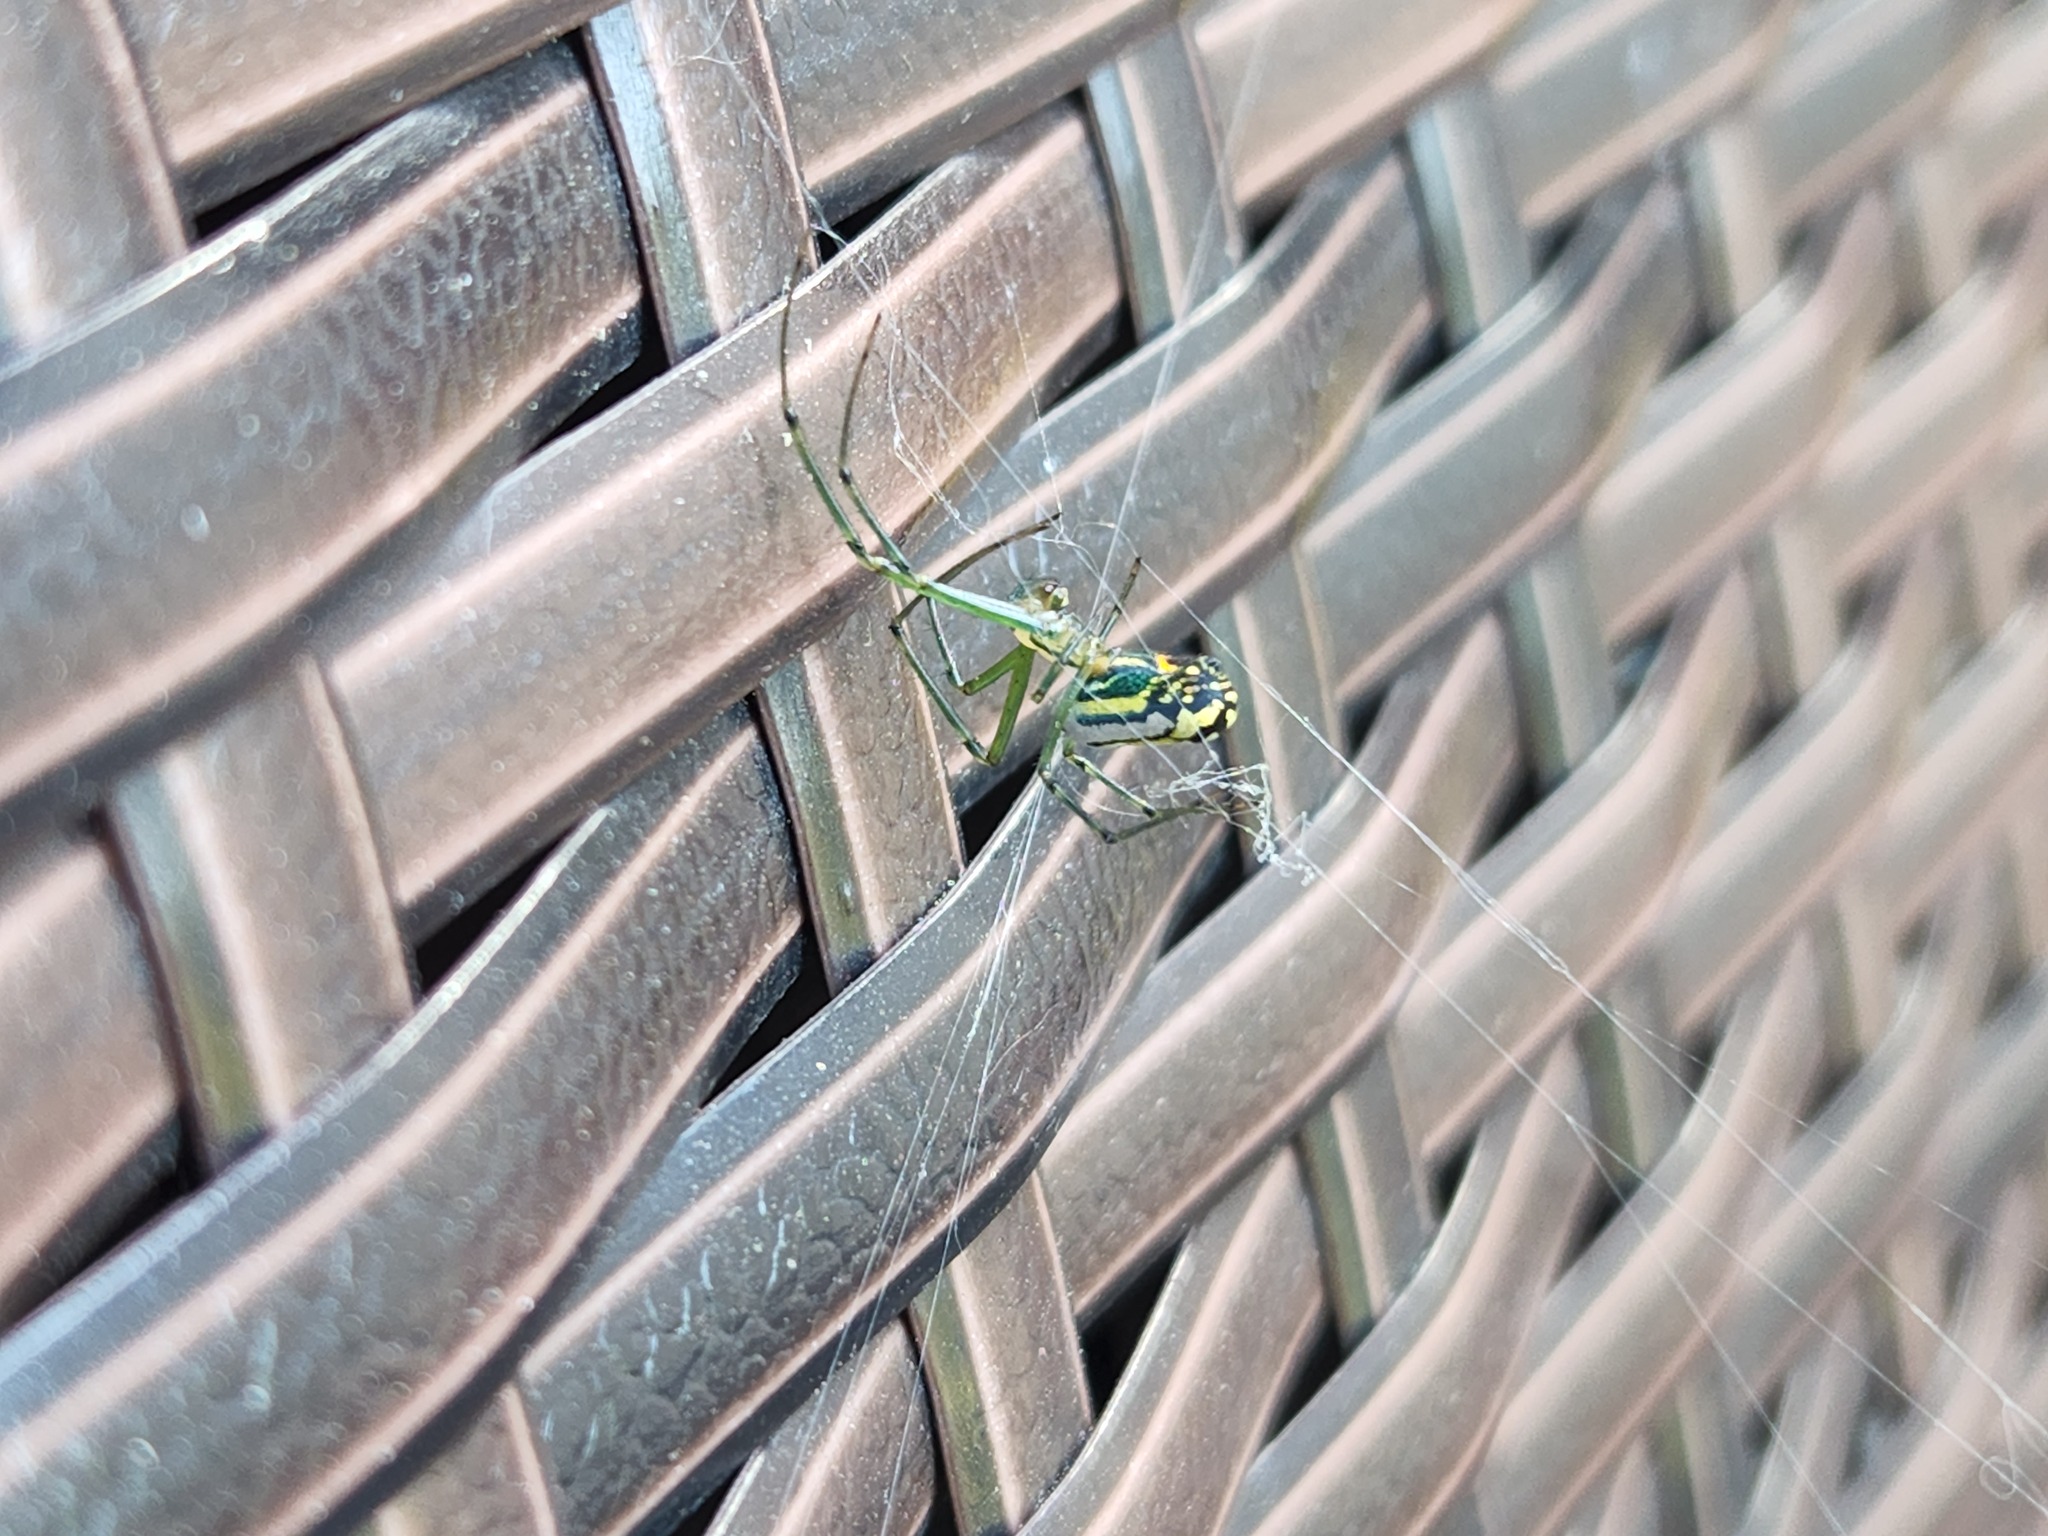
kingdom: Animalia
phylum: Arthropoda
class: Arachnida
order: Araneae
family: Tetragnathidae
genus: Leucauge
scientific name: Leucauge venusta
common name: Longjawed orb weavers
